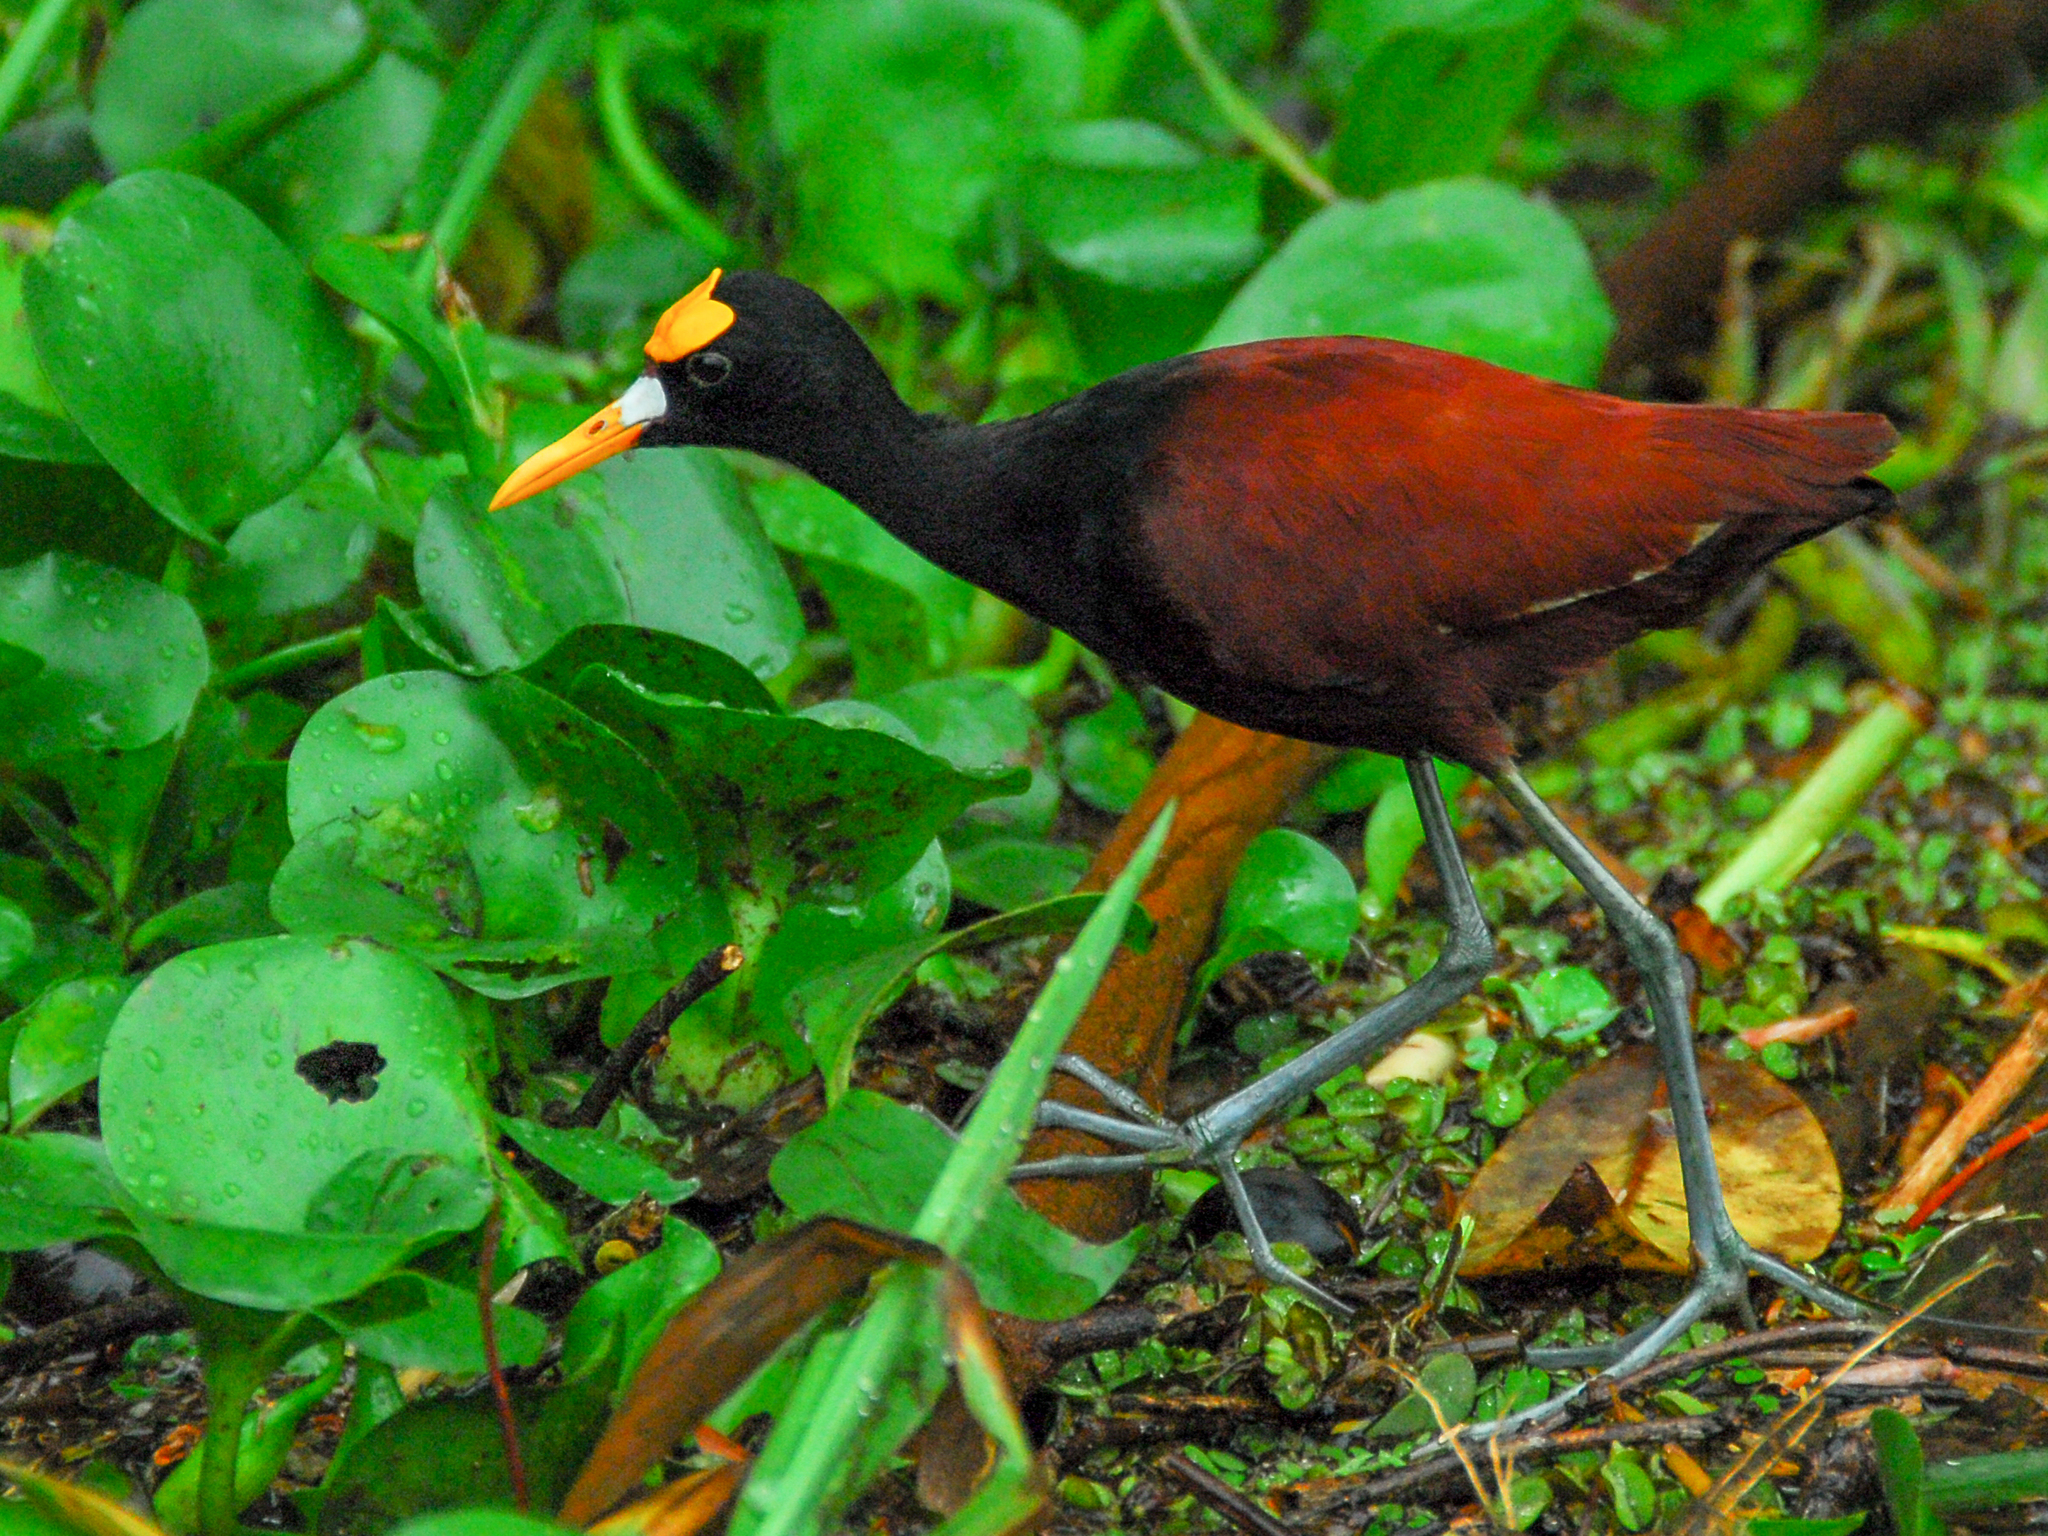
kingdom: Animalia
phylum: Chordata
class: Aves
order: Charadriiformes
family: Jacanidae
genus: Jacana
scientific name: Jacana spinosa
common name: Northern jacana
